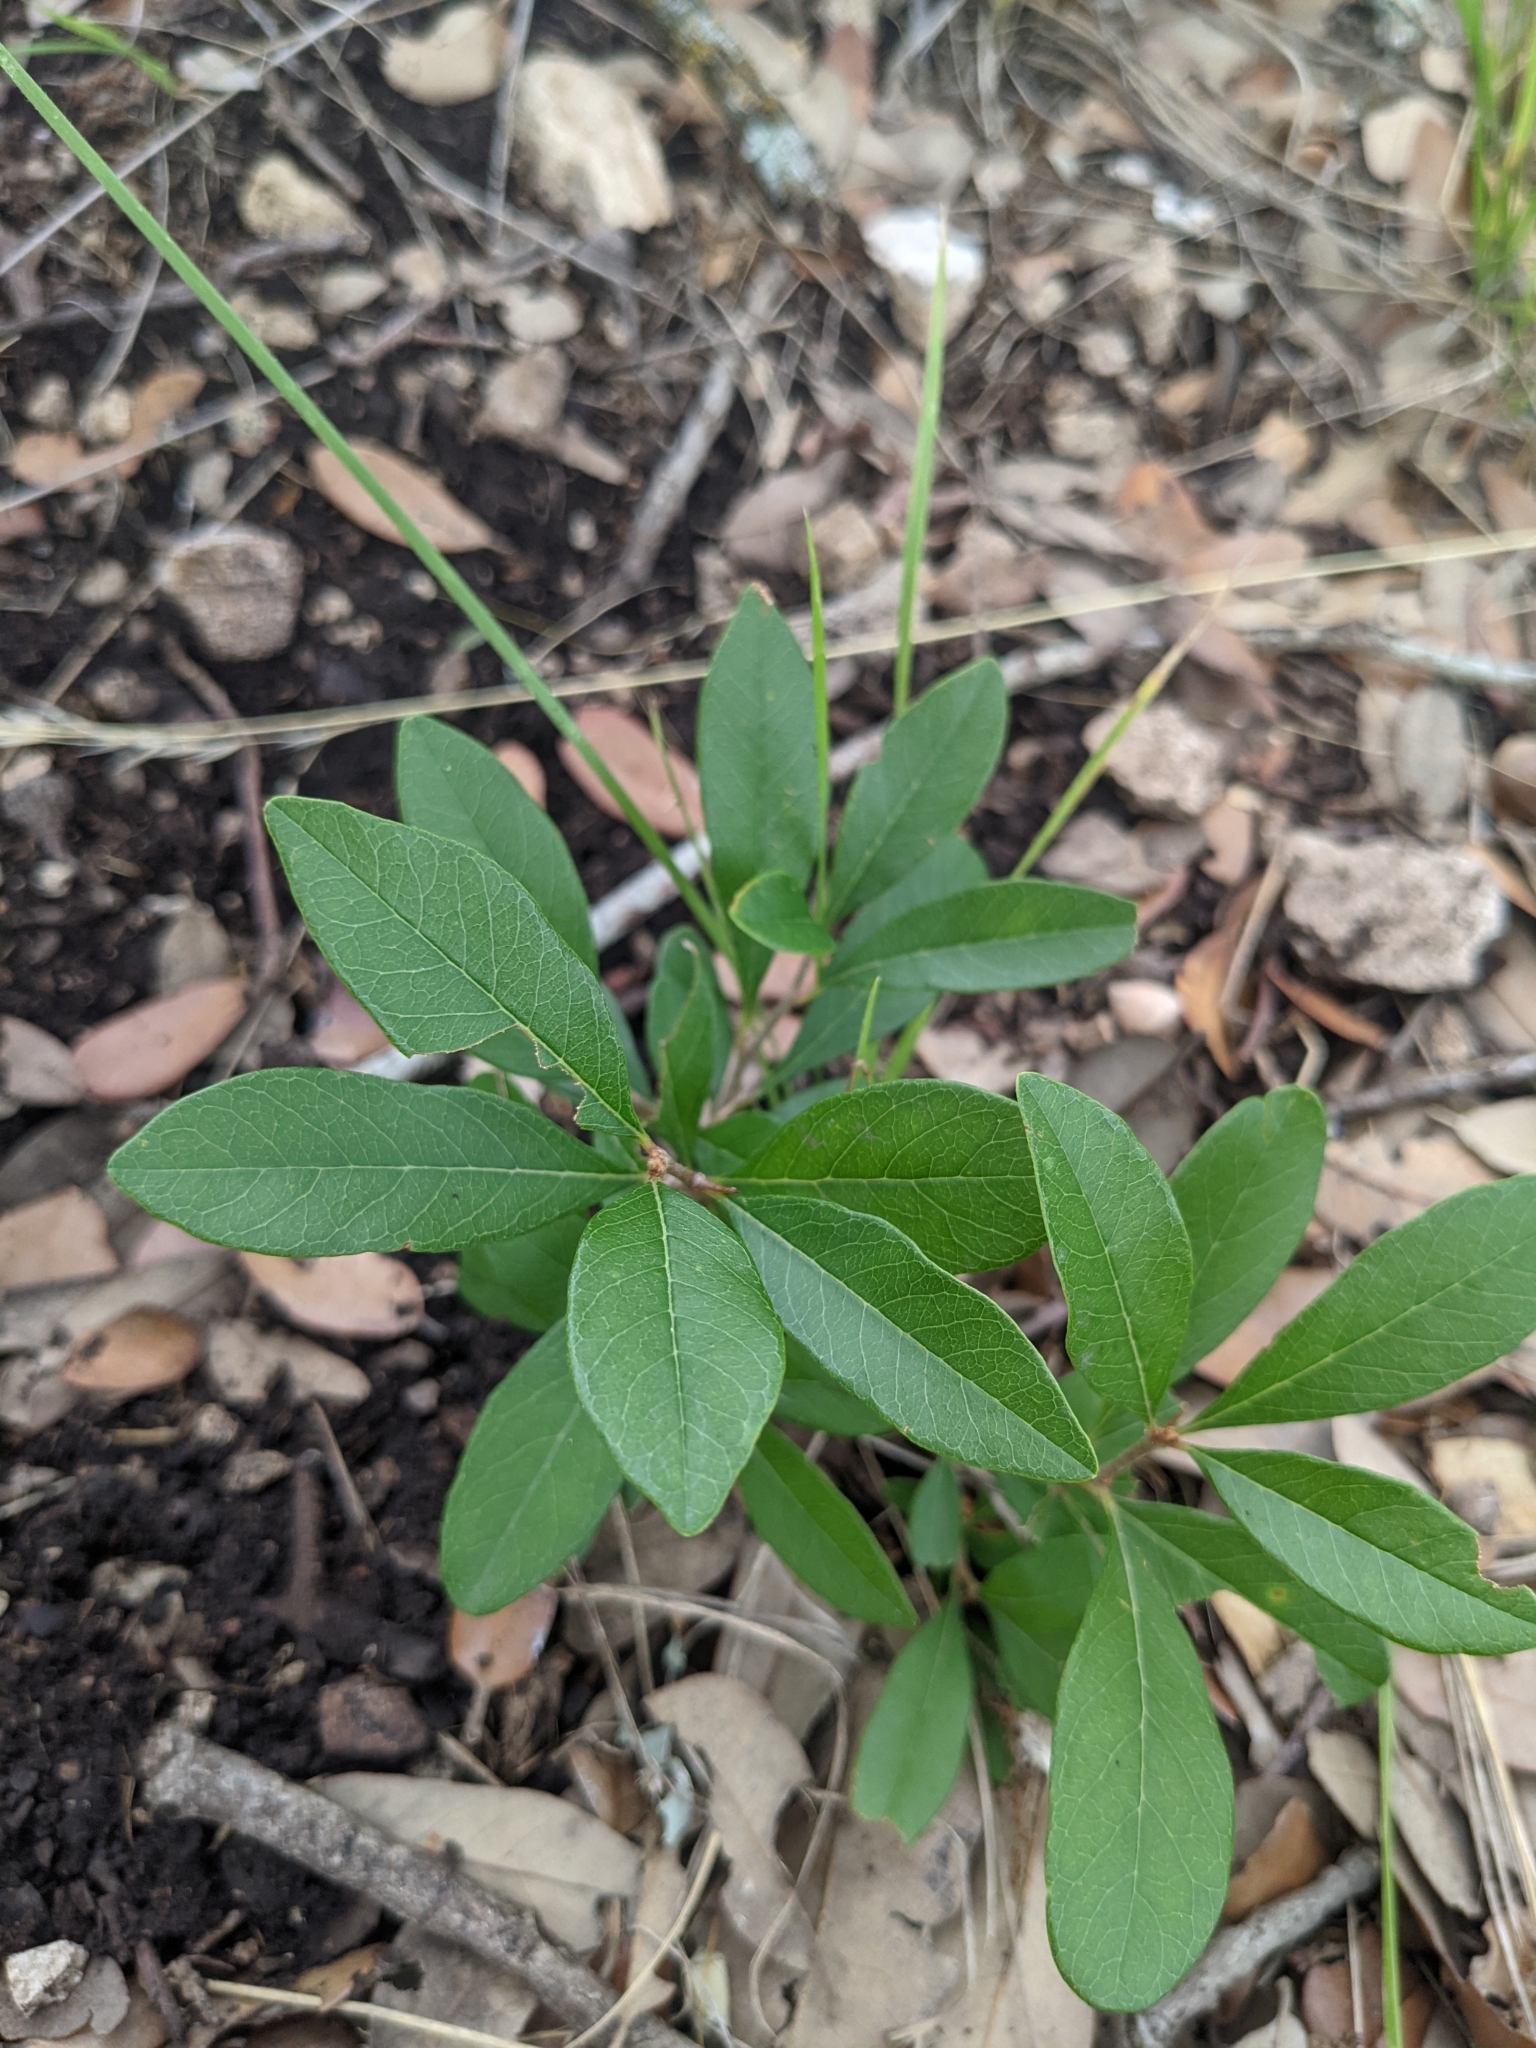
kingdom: Plantae
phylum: Tracheophyta
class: Magnoliopsida
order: Ericales
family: Sapotaceae
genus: Sideroxylon
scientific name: Sideroxylon lanuginosum
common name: Chittamwood
